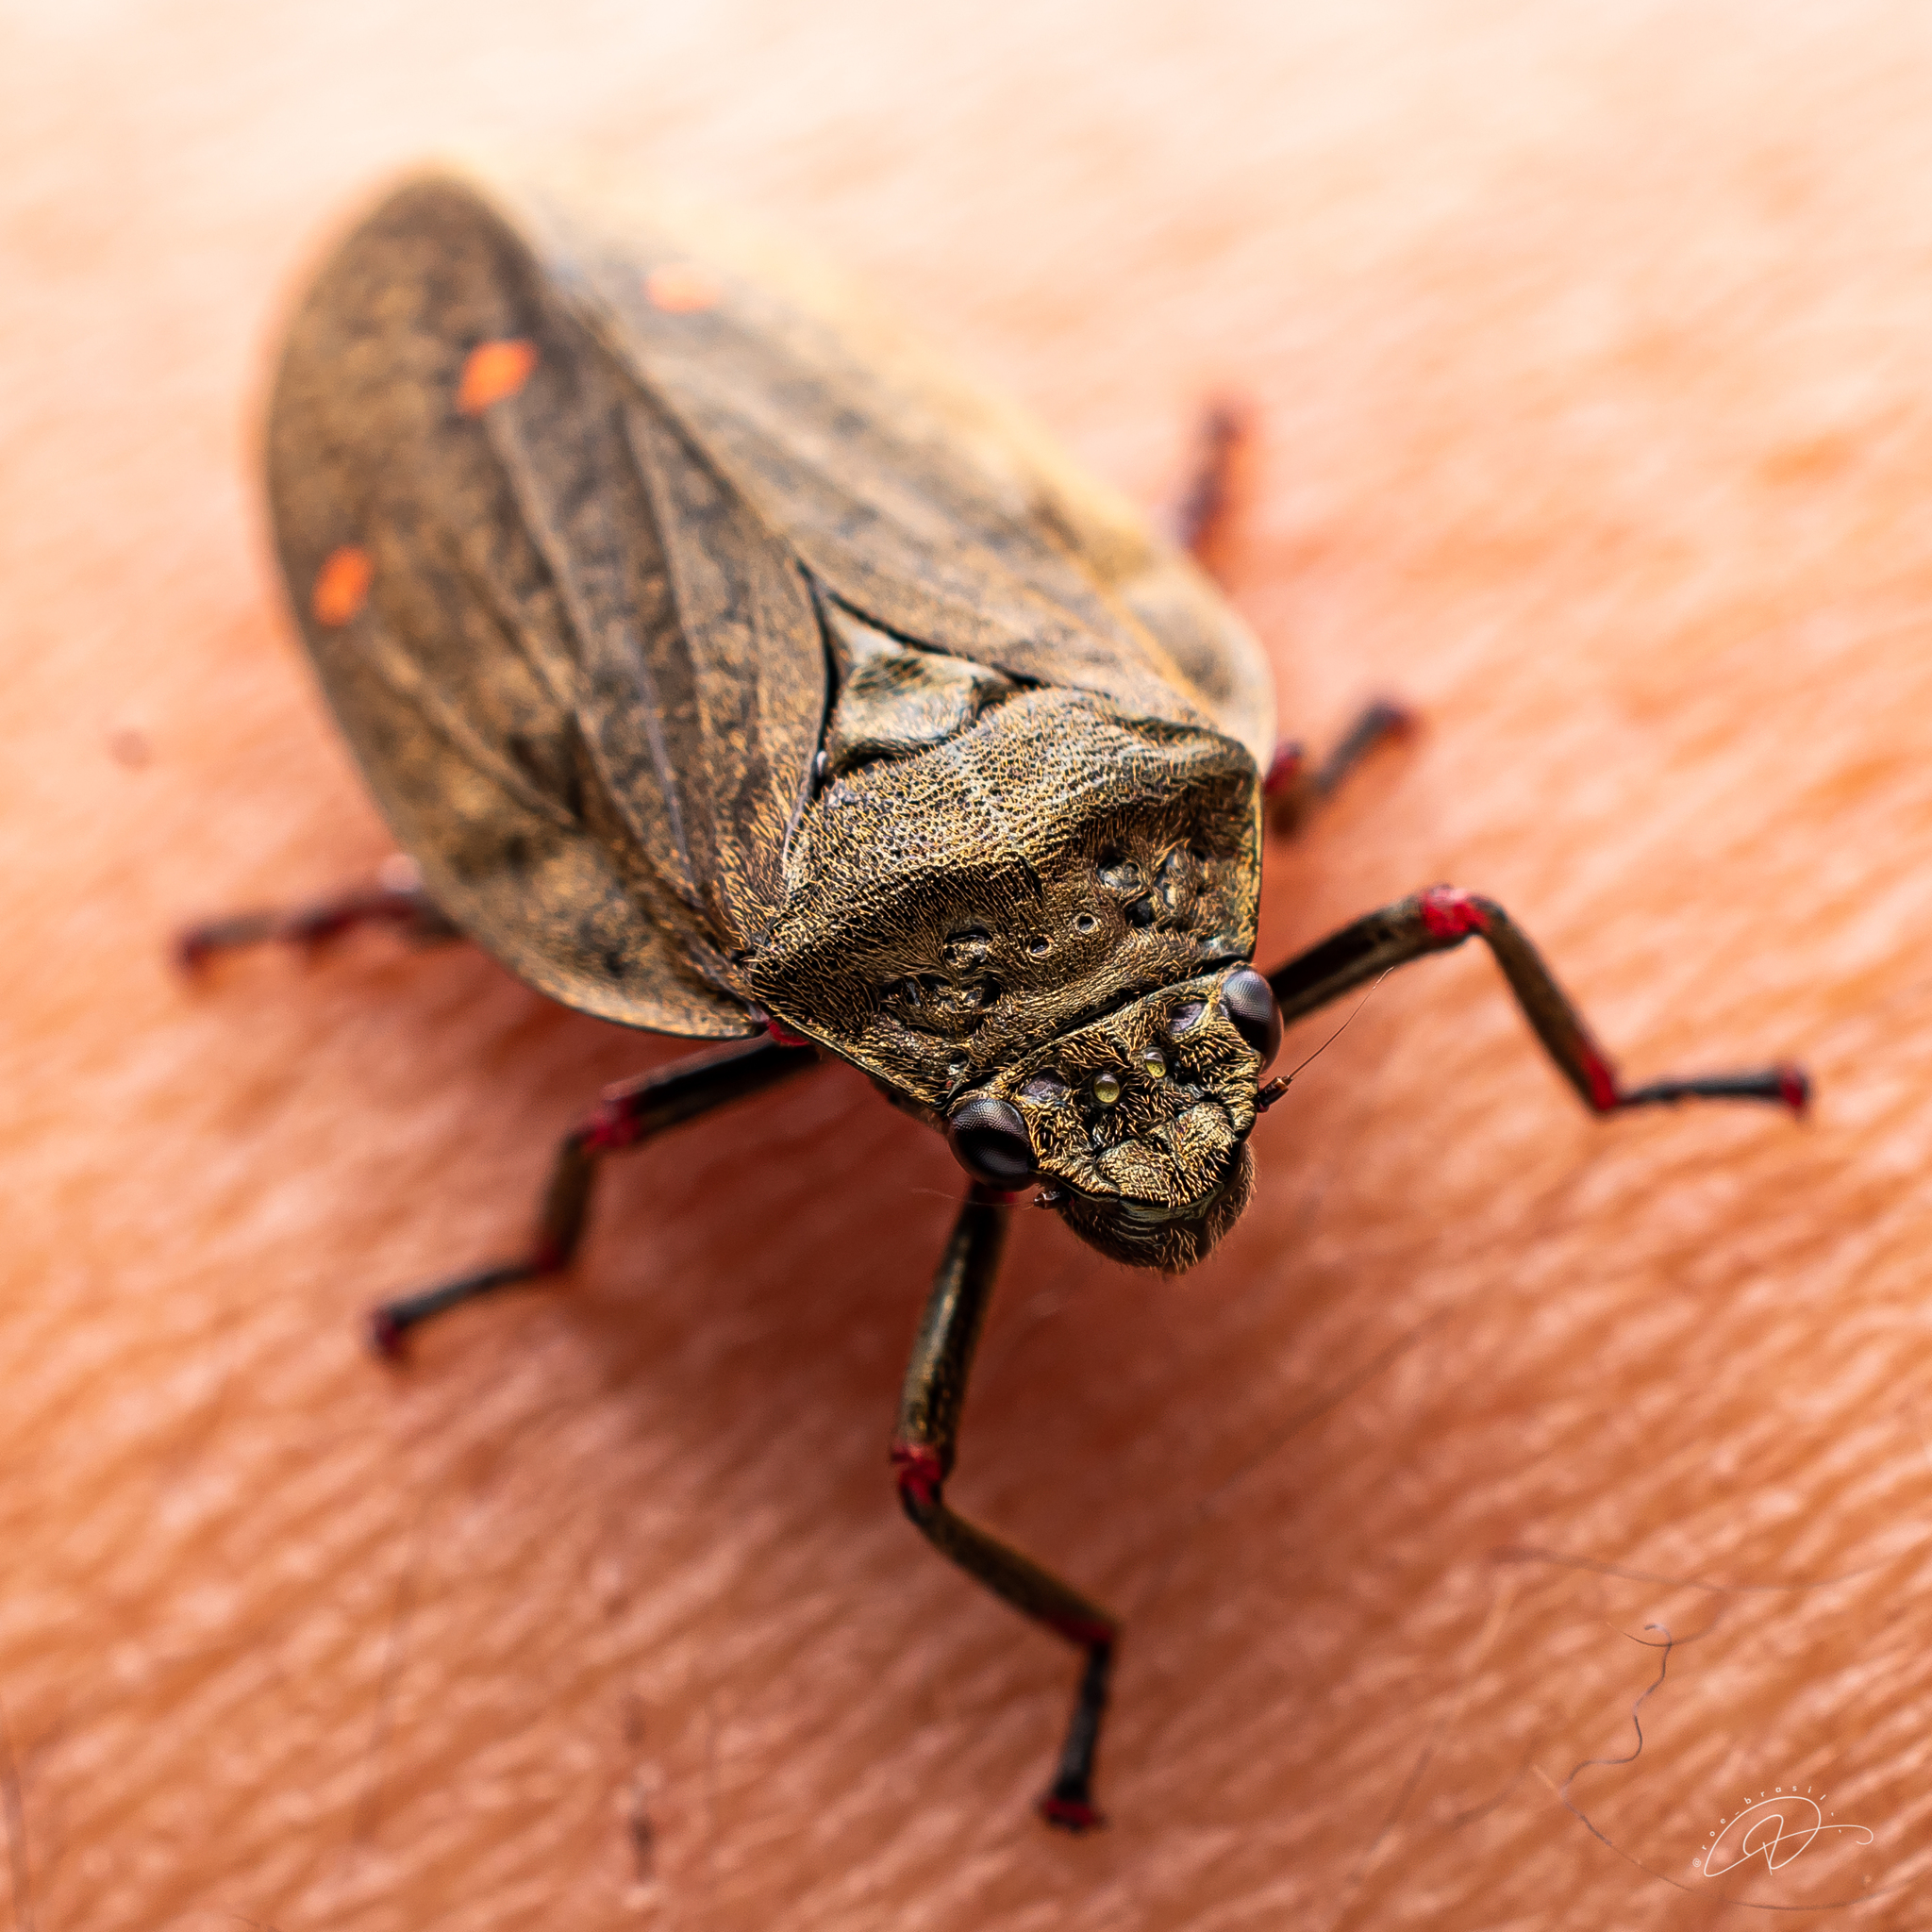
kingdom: Animalia
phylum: Arthropoda
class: Insecta
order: Hemiptera
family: Cercopidae
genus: Deois
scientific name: Deois spinulata
